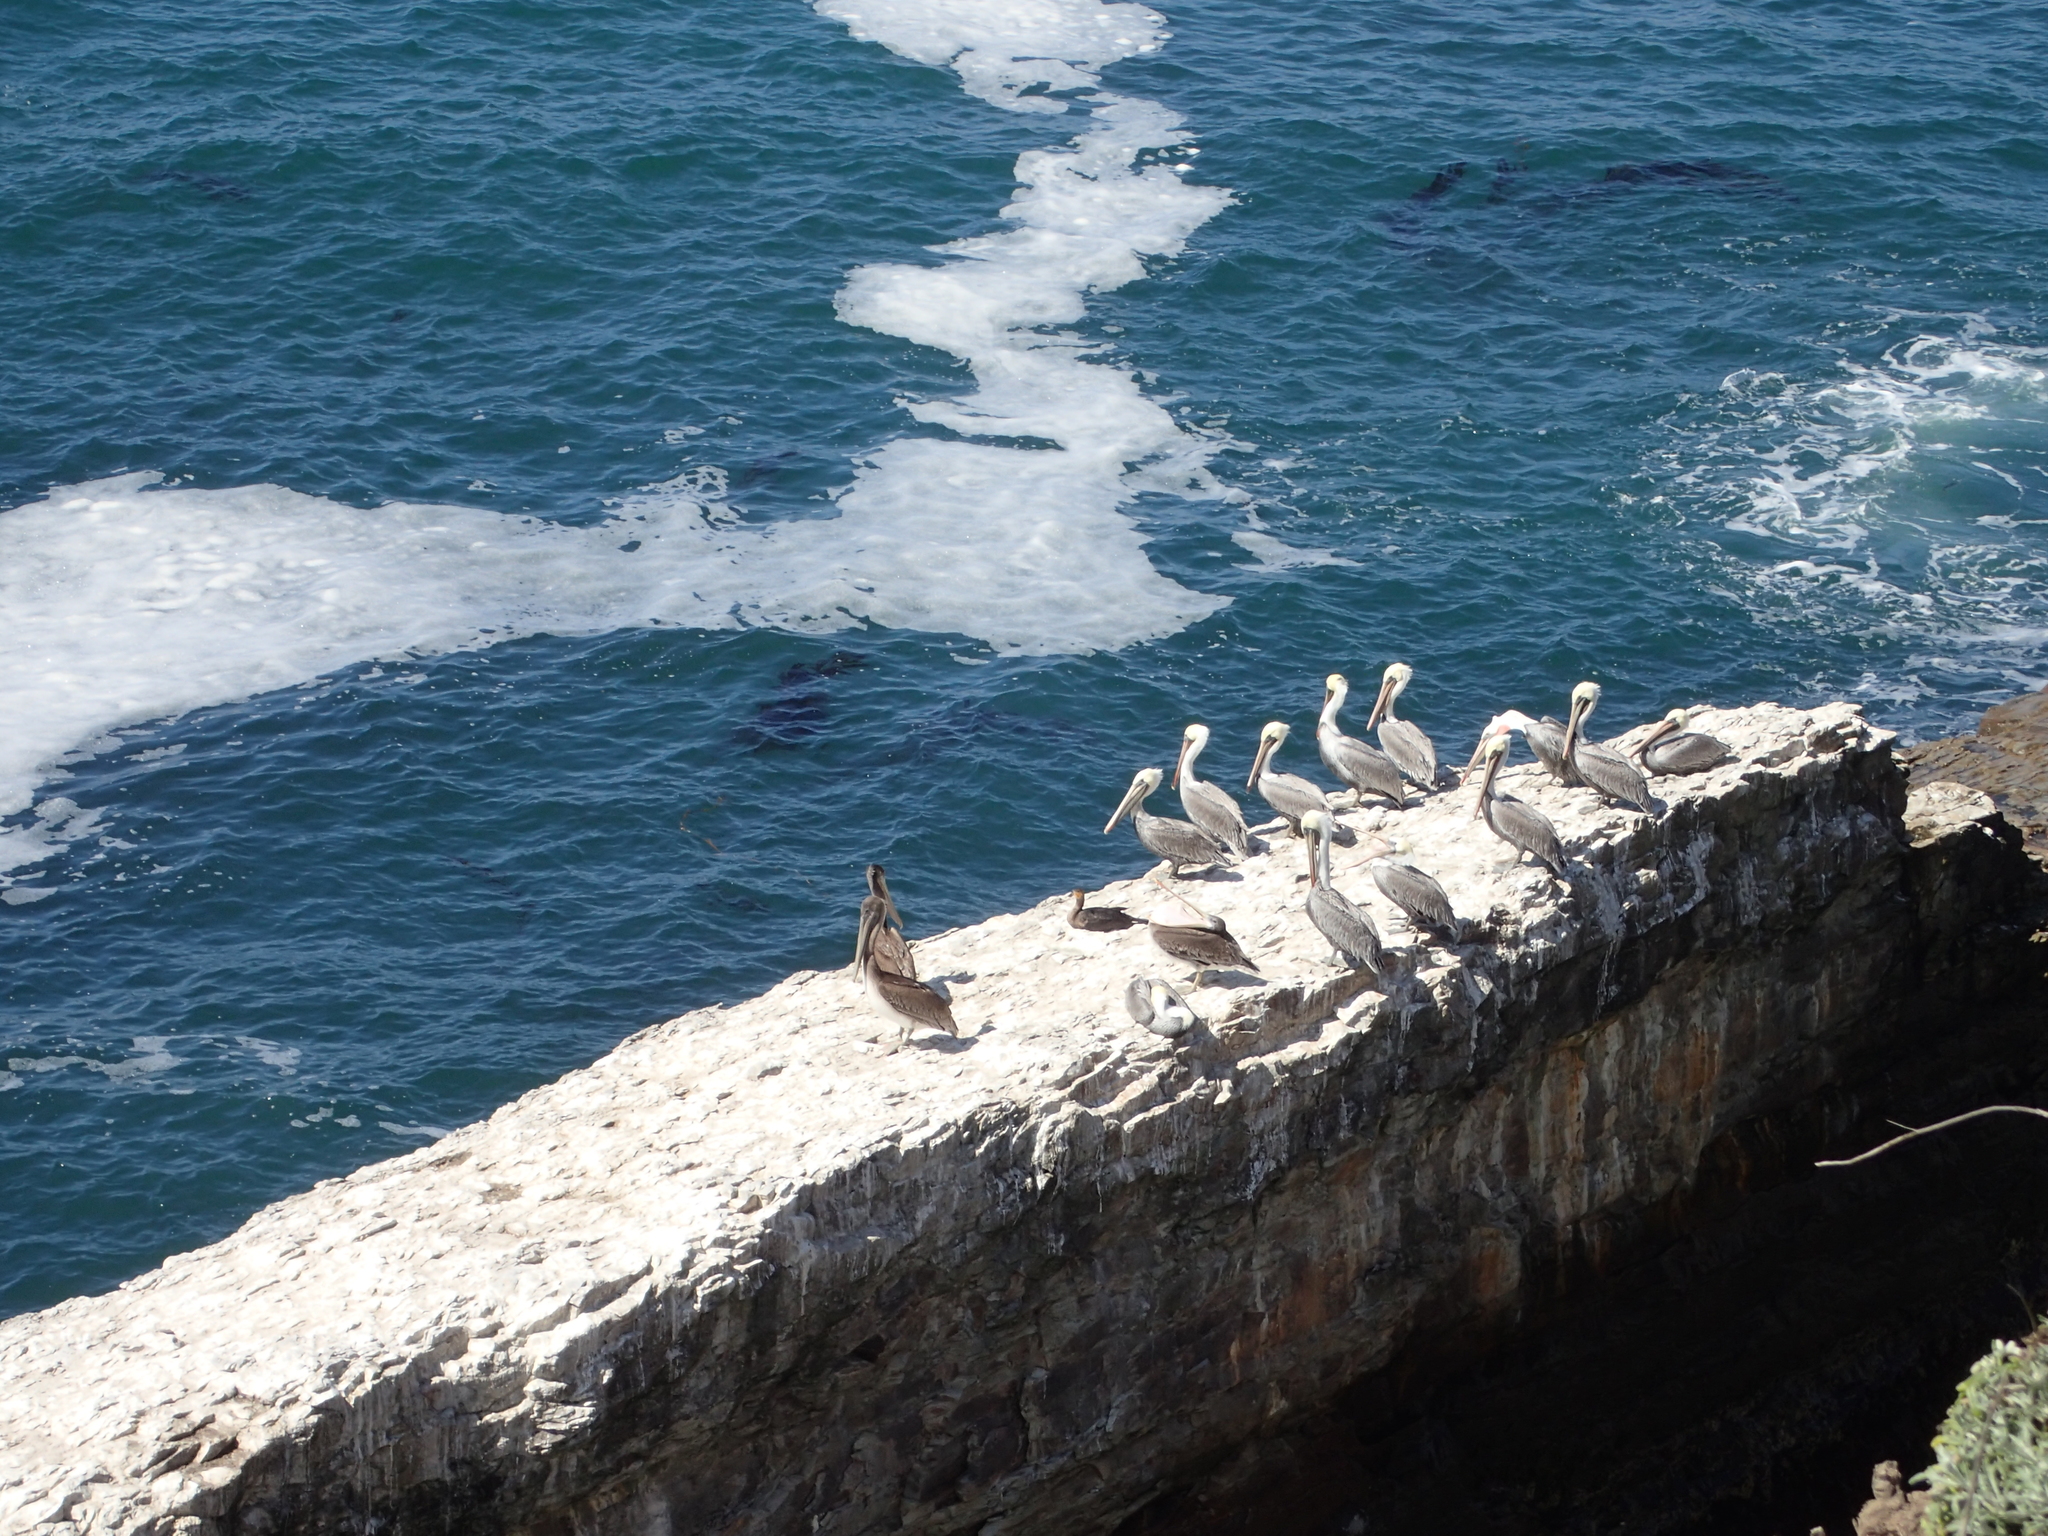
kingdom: Animalia
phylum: Chordata
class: Aves
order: Pelecaniformes
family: Pelecanidae
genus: Pelecanus
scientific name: Pelecanus occidentalis
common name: Brown pelican
